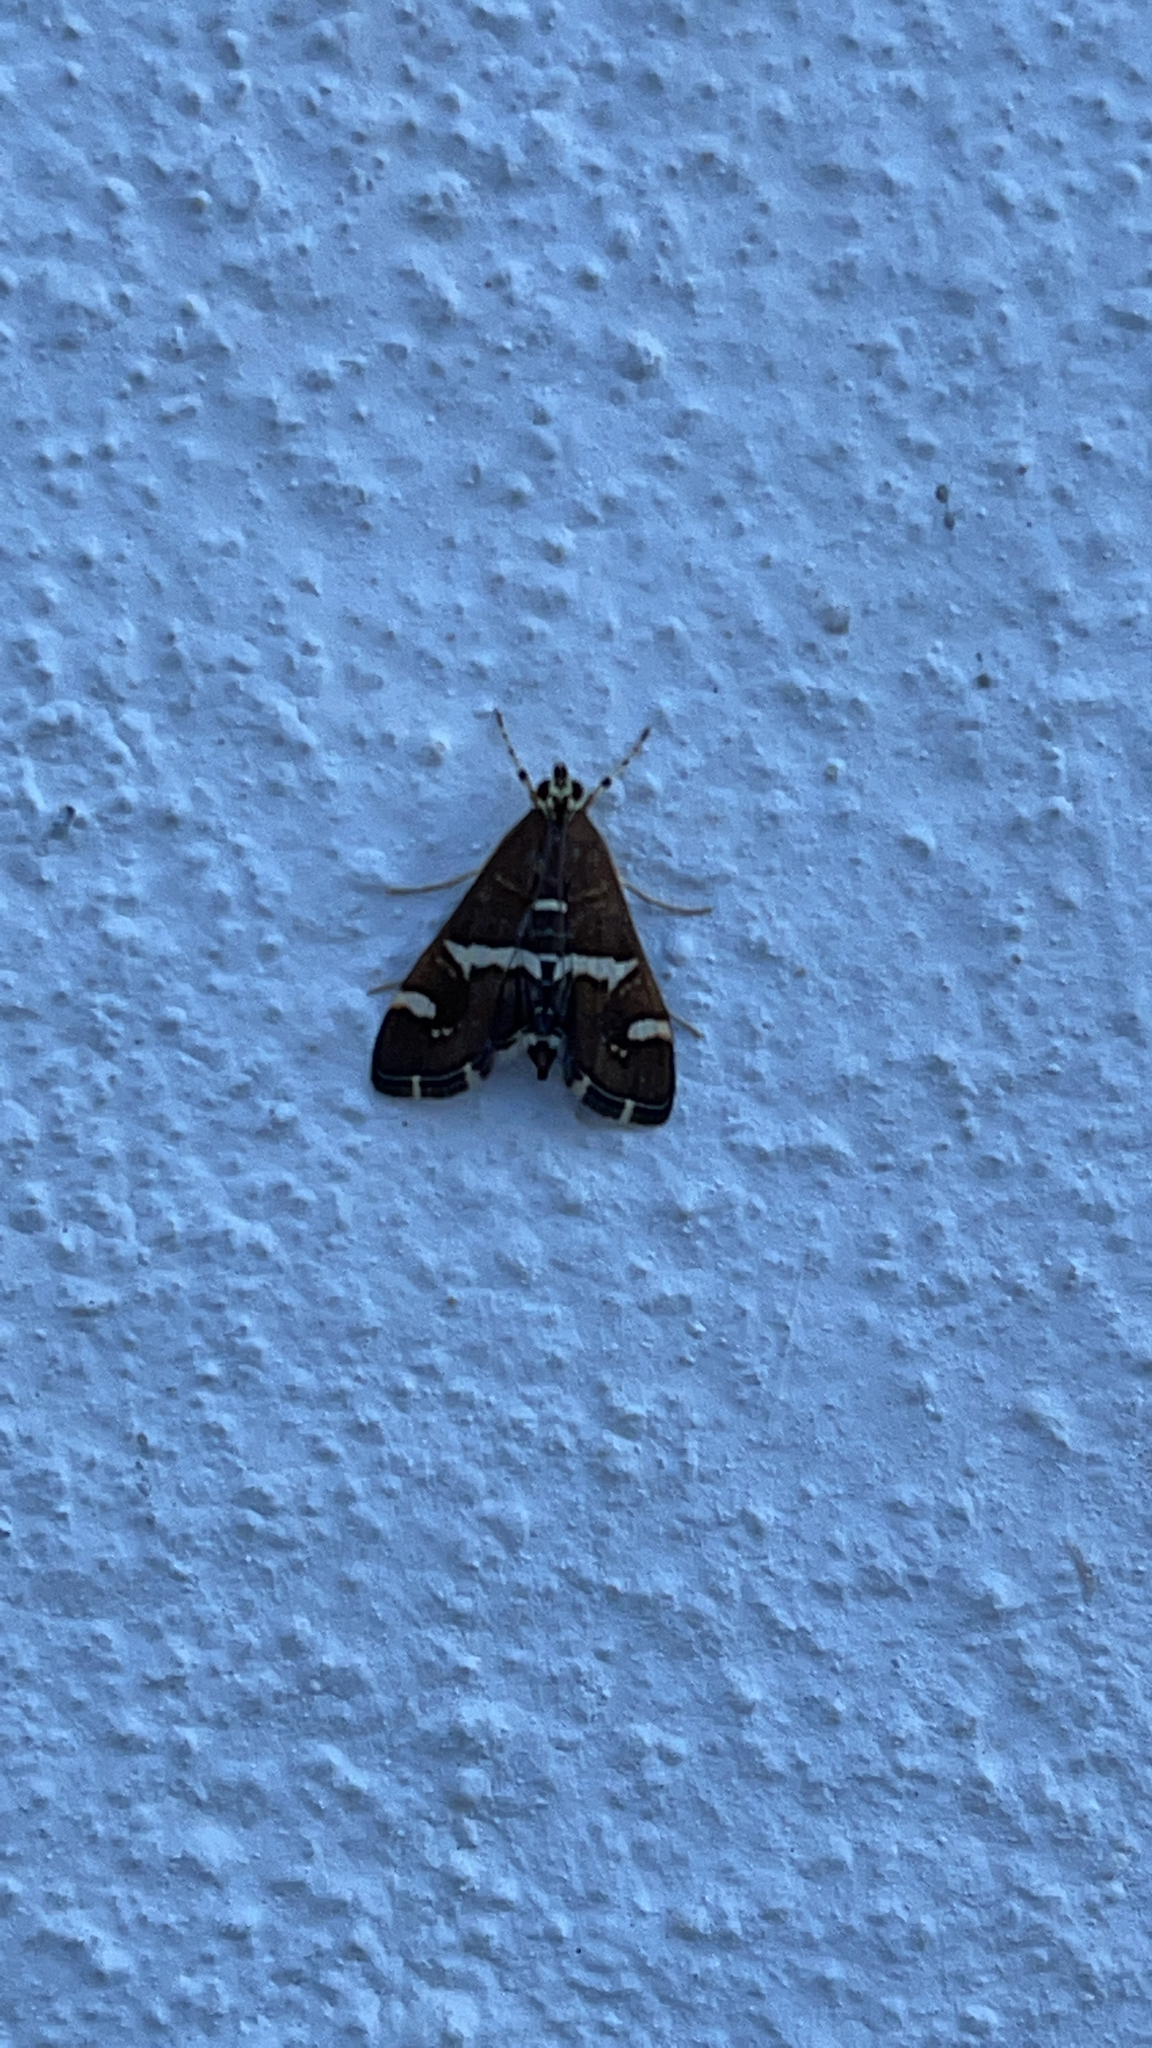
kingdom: Animalia
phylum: Arthropoda
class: Insecta
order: Lepidoptera
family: Crambidae
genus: Spoladea
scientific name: Spoladea recurvalis
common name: Beet webworm moth
